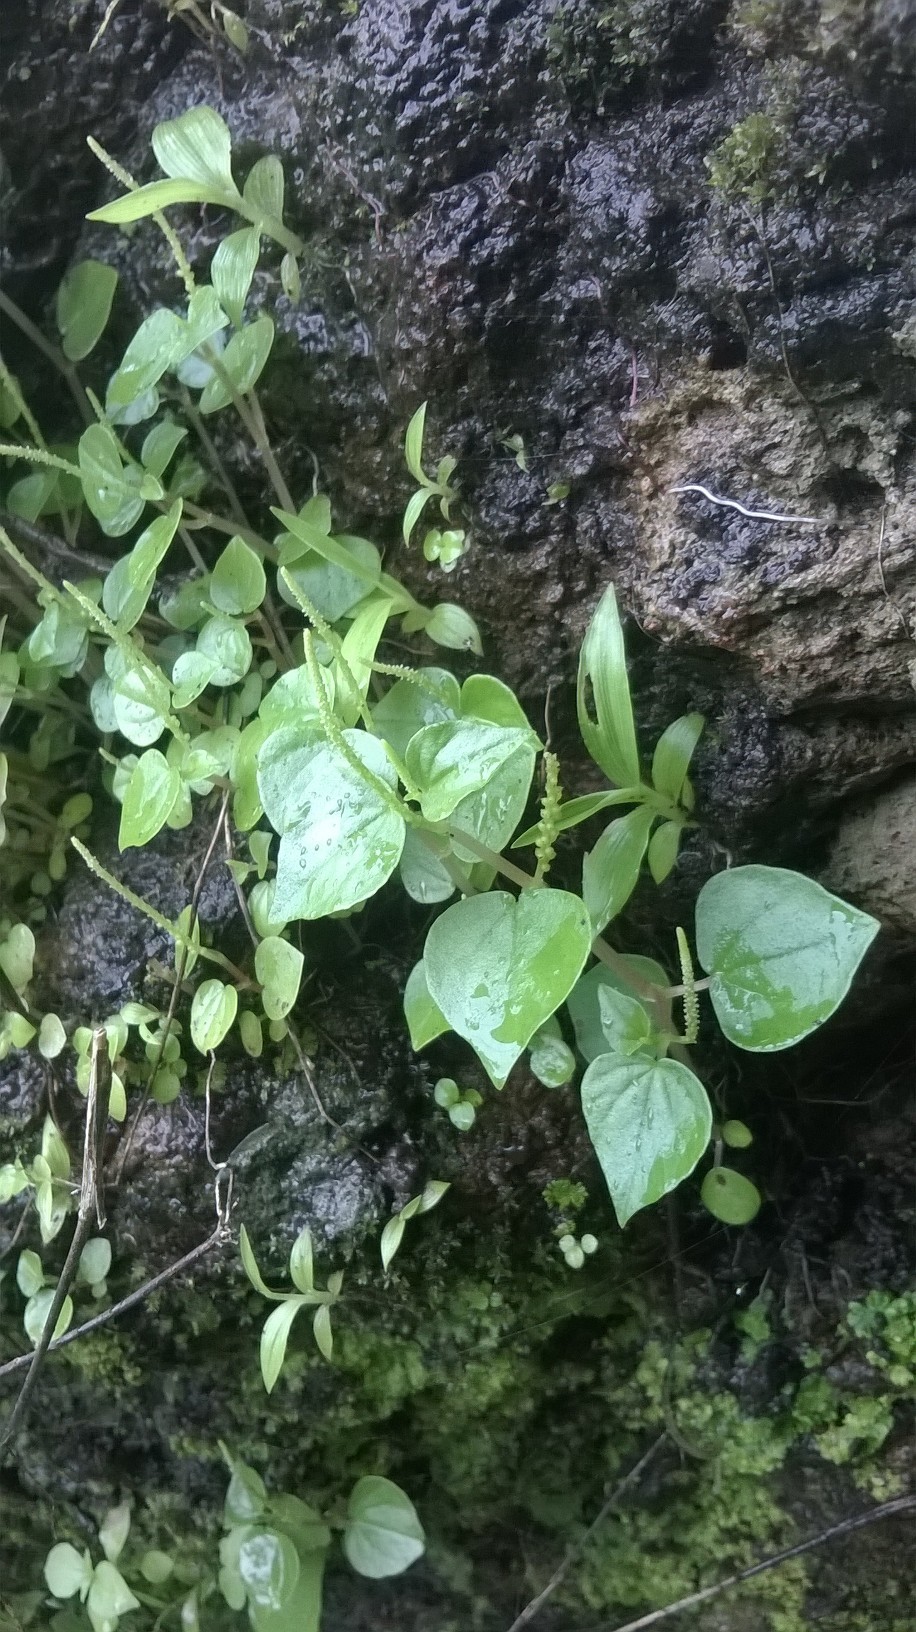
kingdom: Plantae
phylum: Tracheophyta
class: Magnoliopsida
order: Piperales
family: Piperaceae
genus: Peperomia
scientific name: Peperomia pellucida
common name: Man to man
